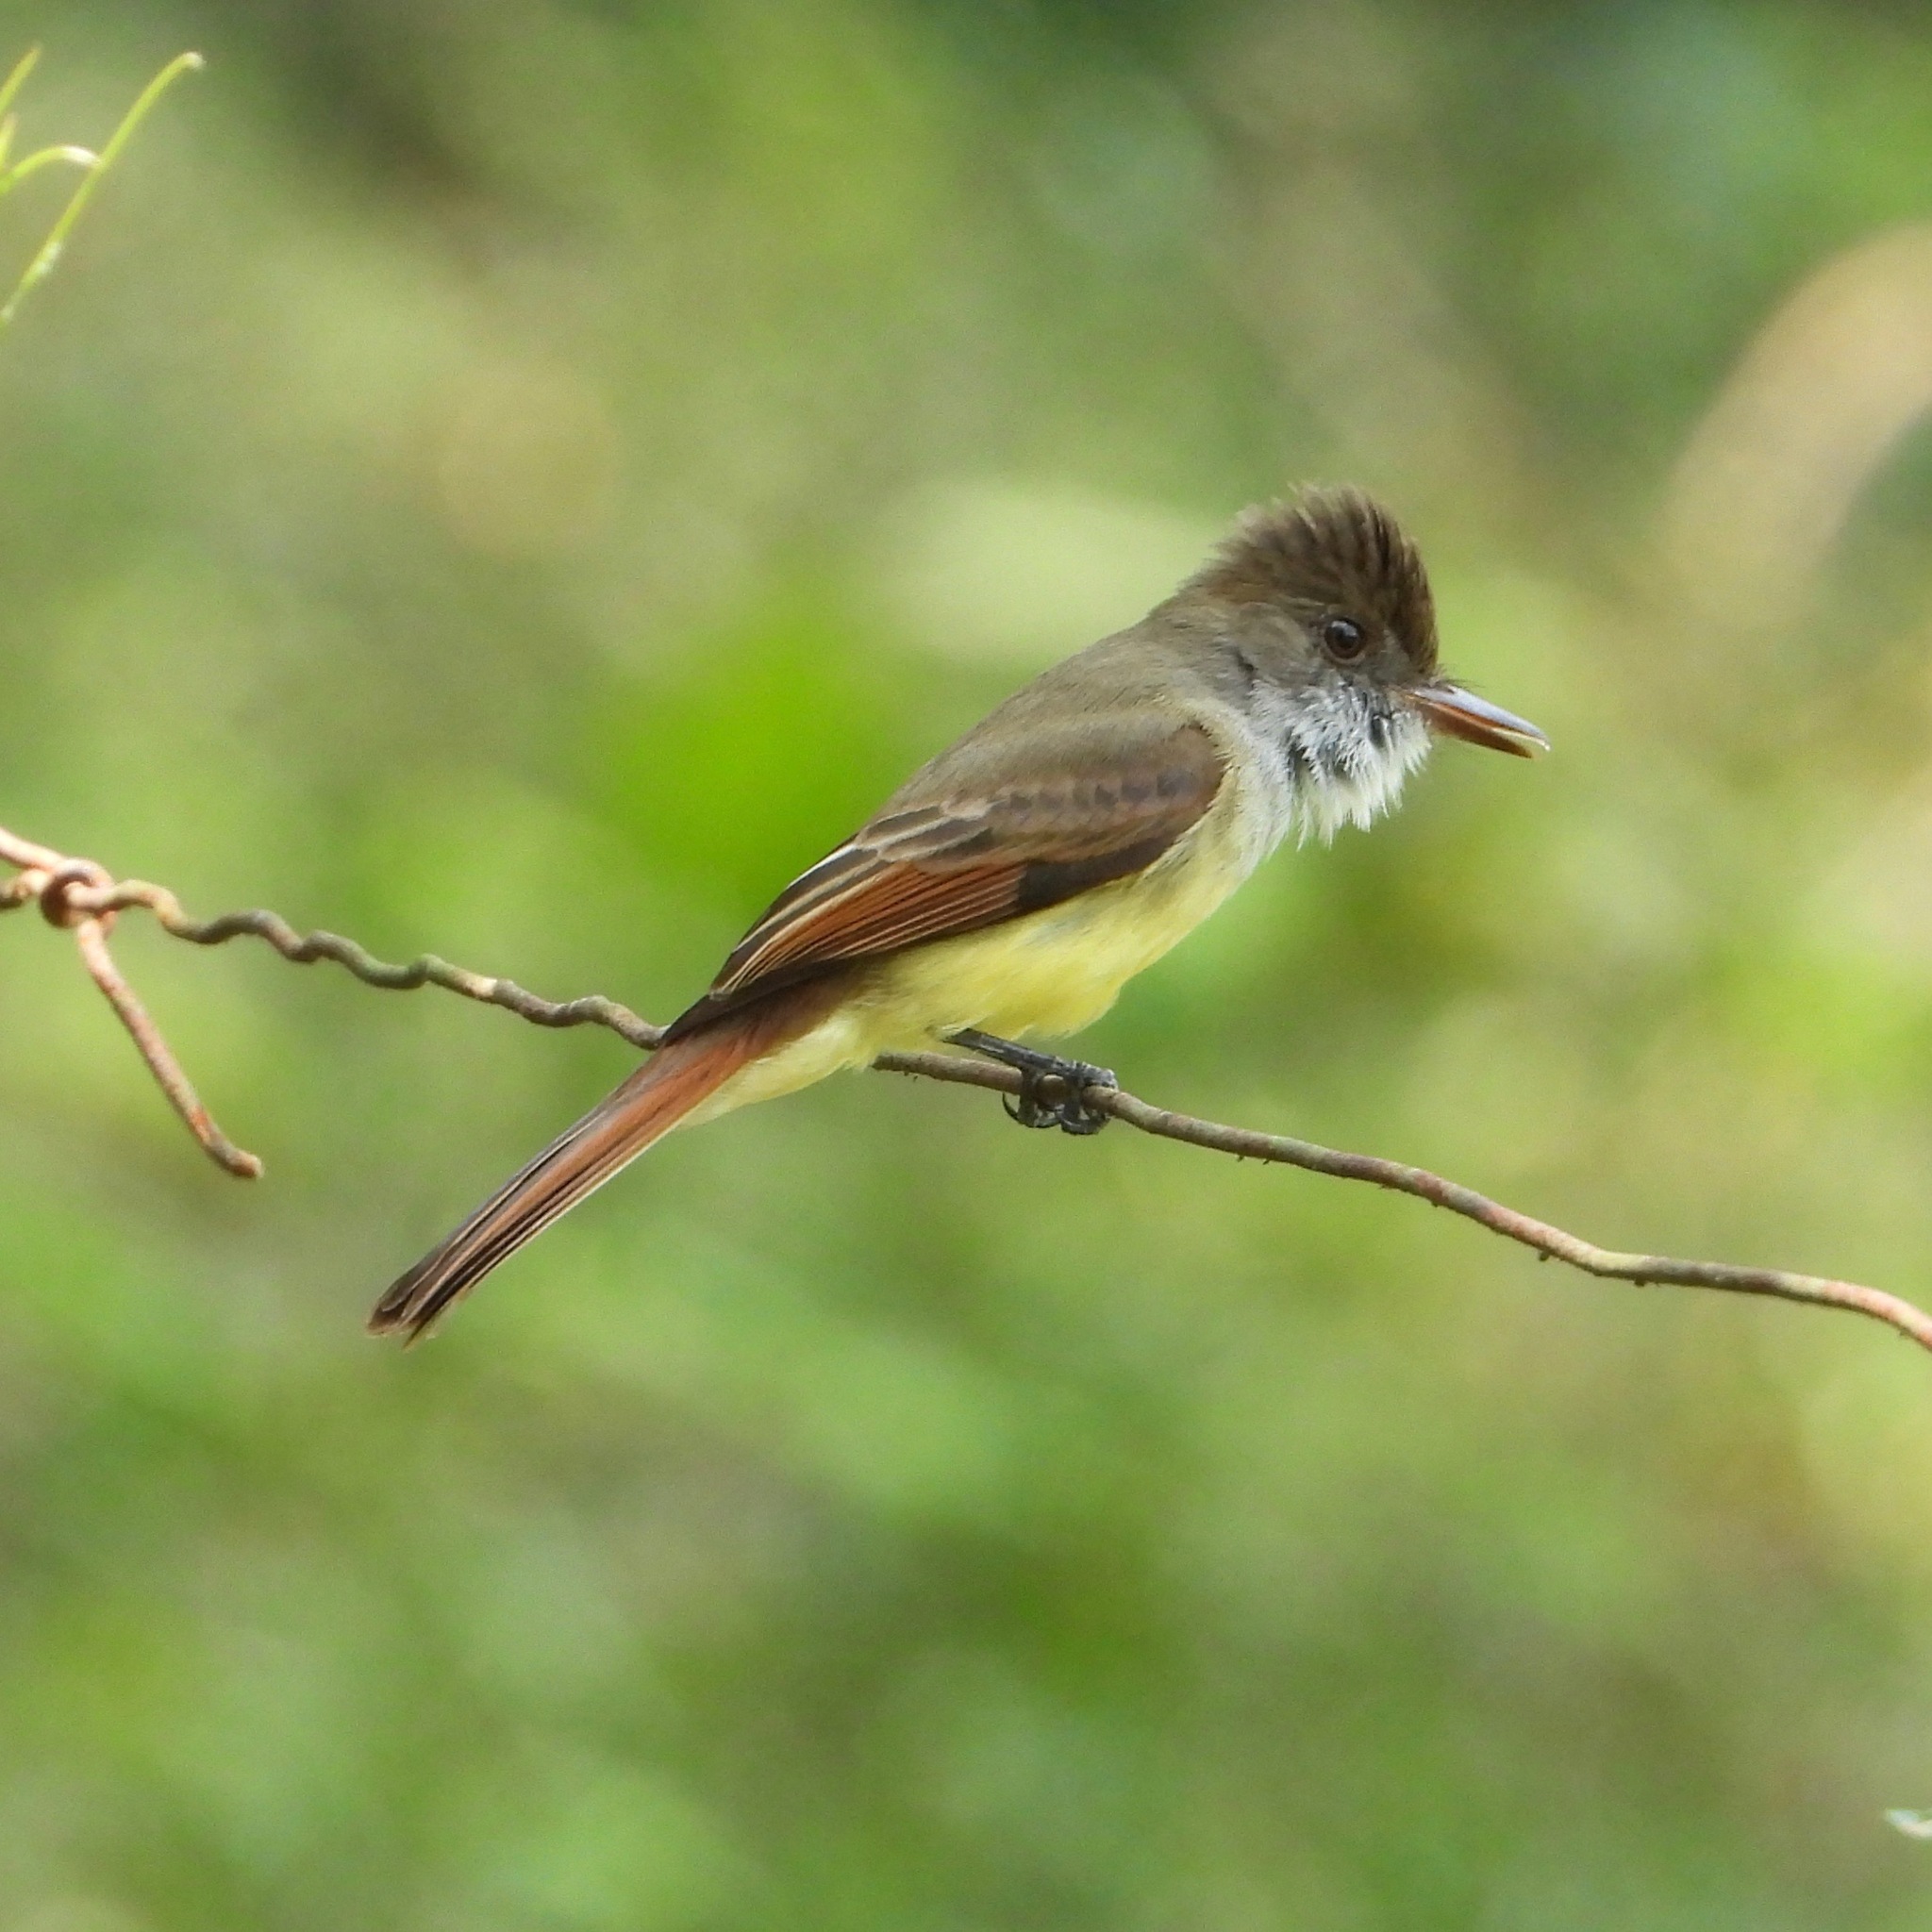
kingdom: Animalia
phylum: Chordata
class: Aves
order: Passeriformes
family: Tyrannidae
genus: Myiarchus
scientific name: Myiarchus tuberculifer
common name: Dusky-capped flycatcher
